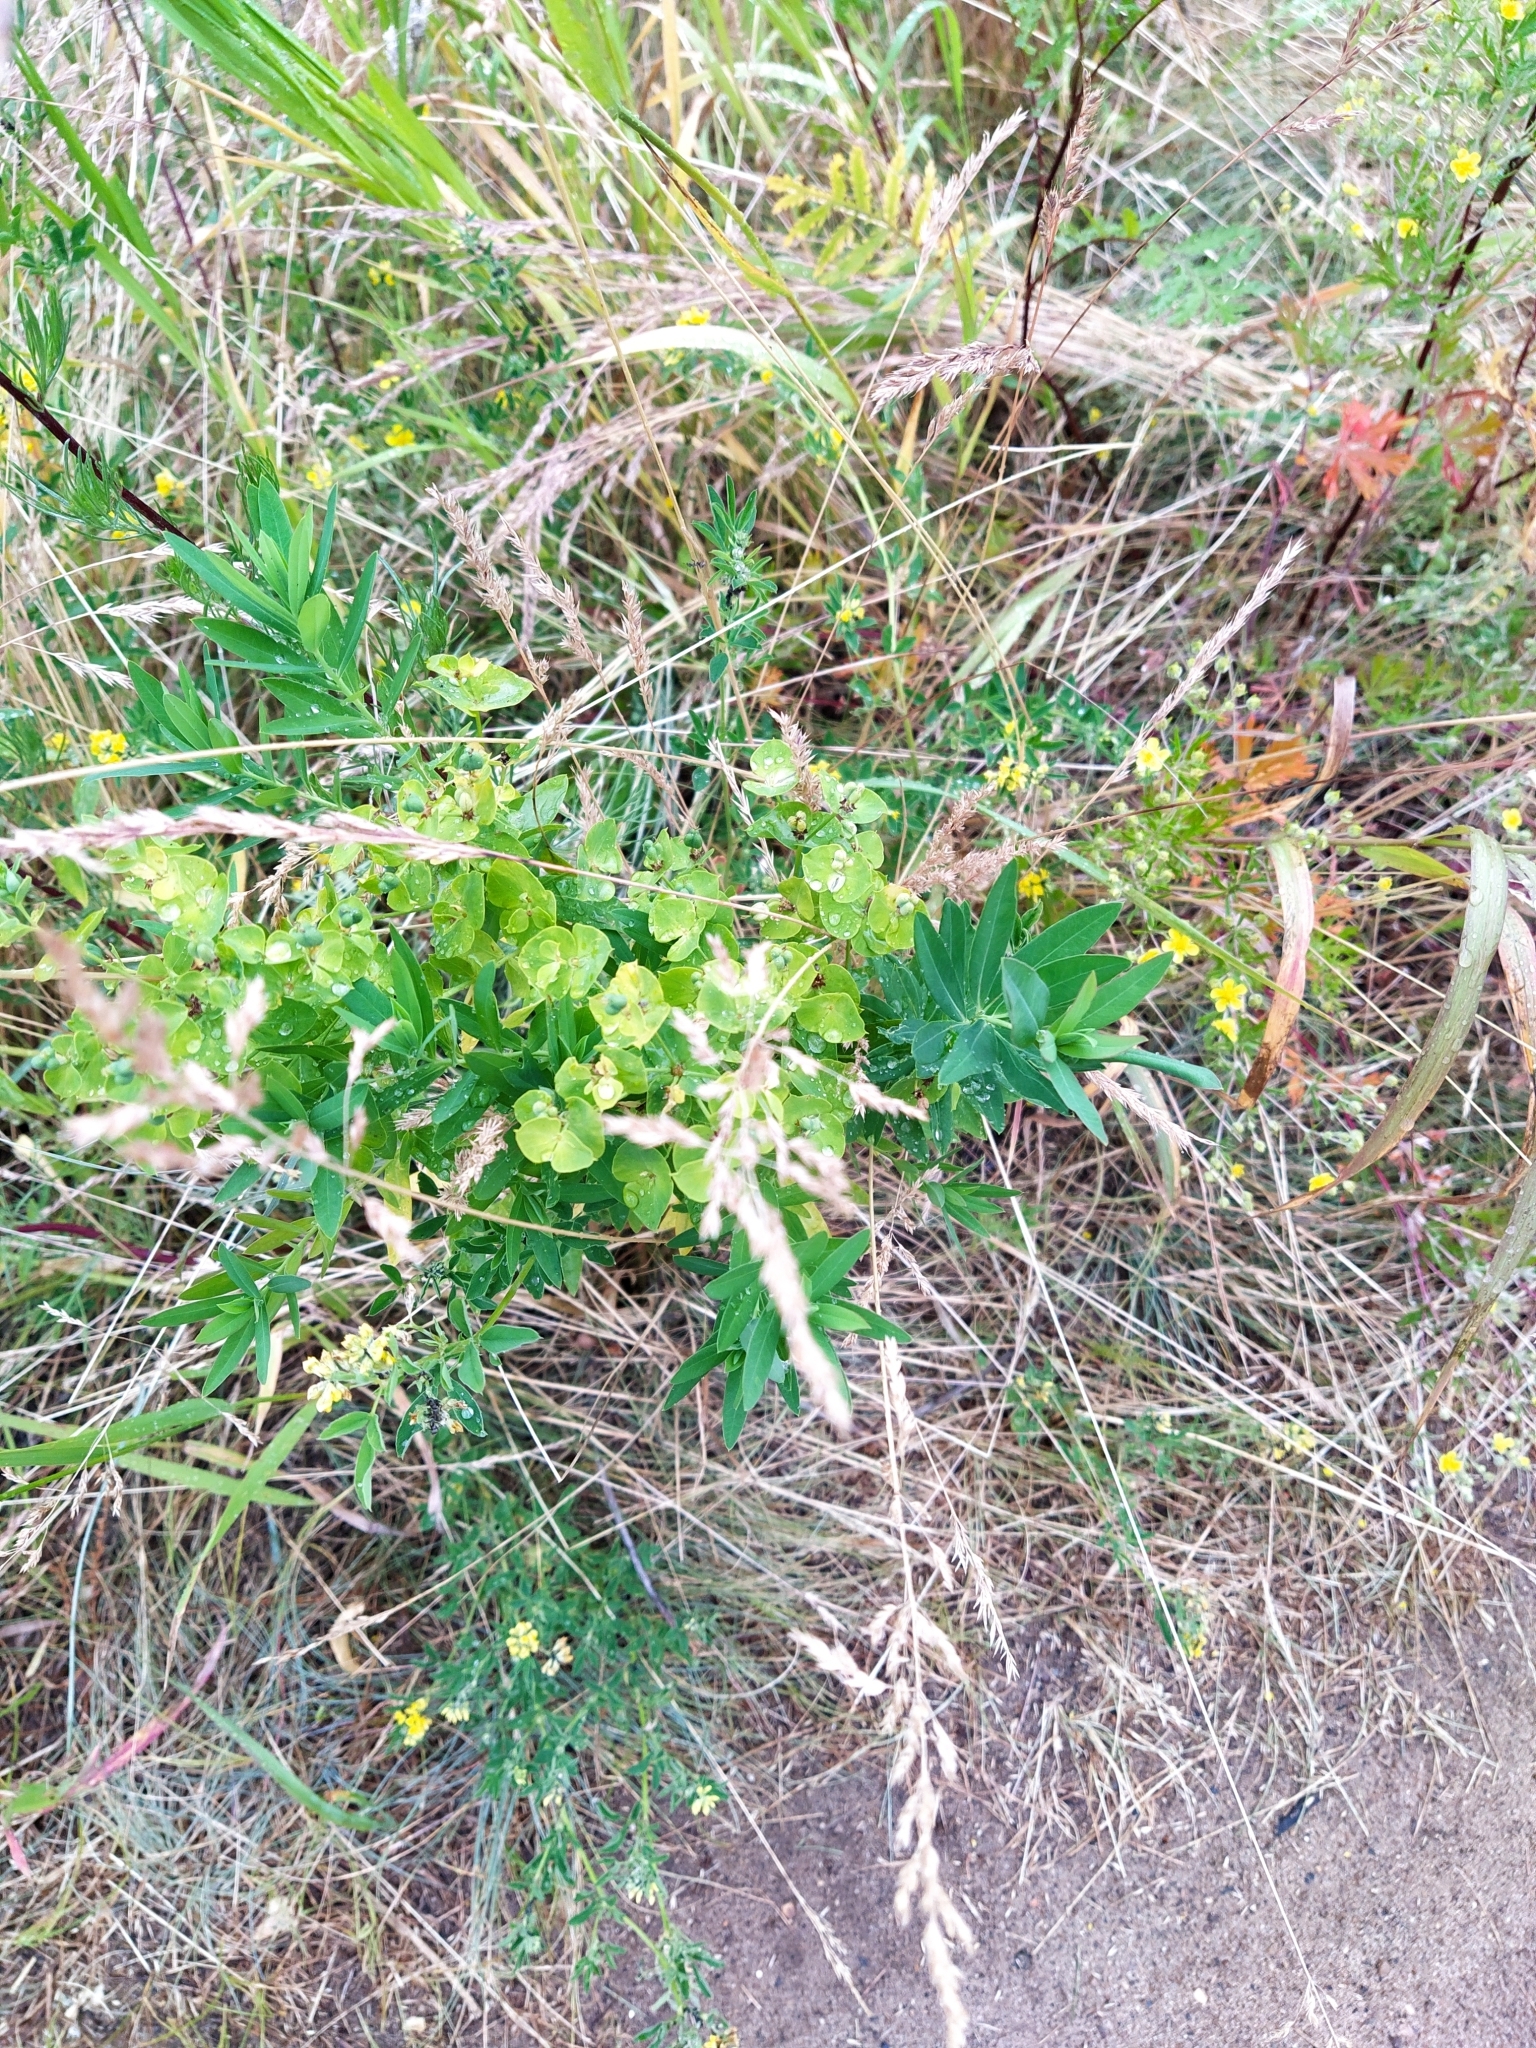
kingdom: Plantae
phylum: Tracheophyta
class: Magnoliopsida
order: Malpighiales
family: Euphorbiaceae
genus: Euphorbia
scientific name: Euphorbia virgata
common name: Leafy spurge
